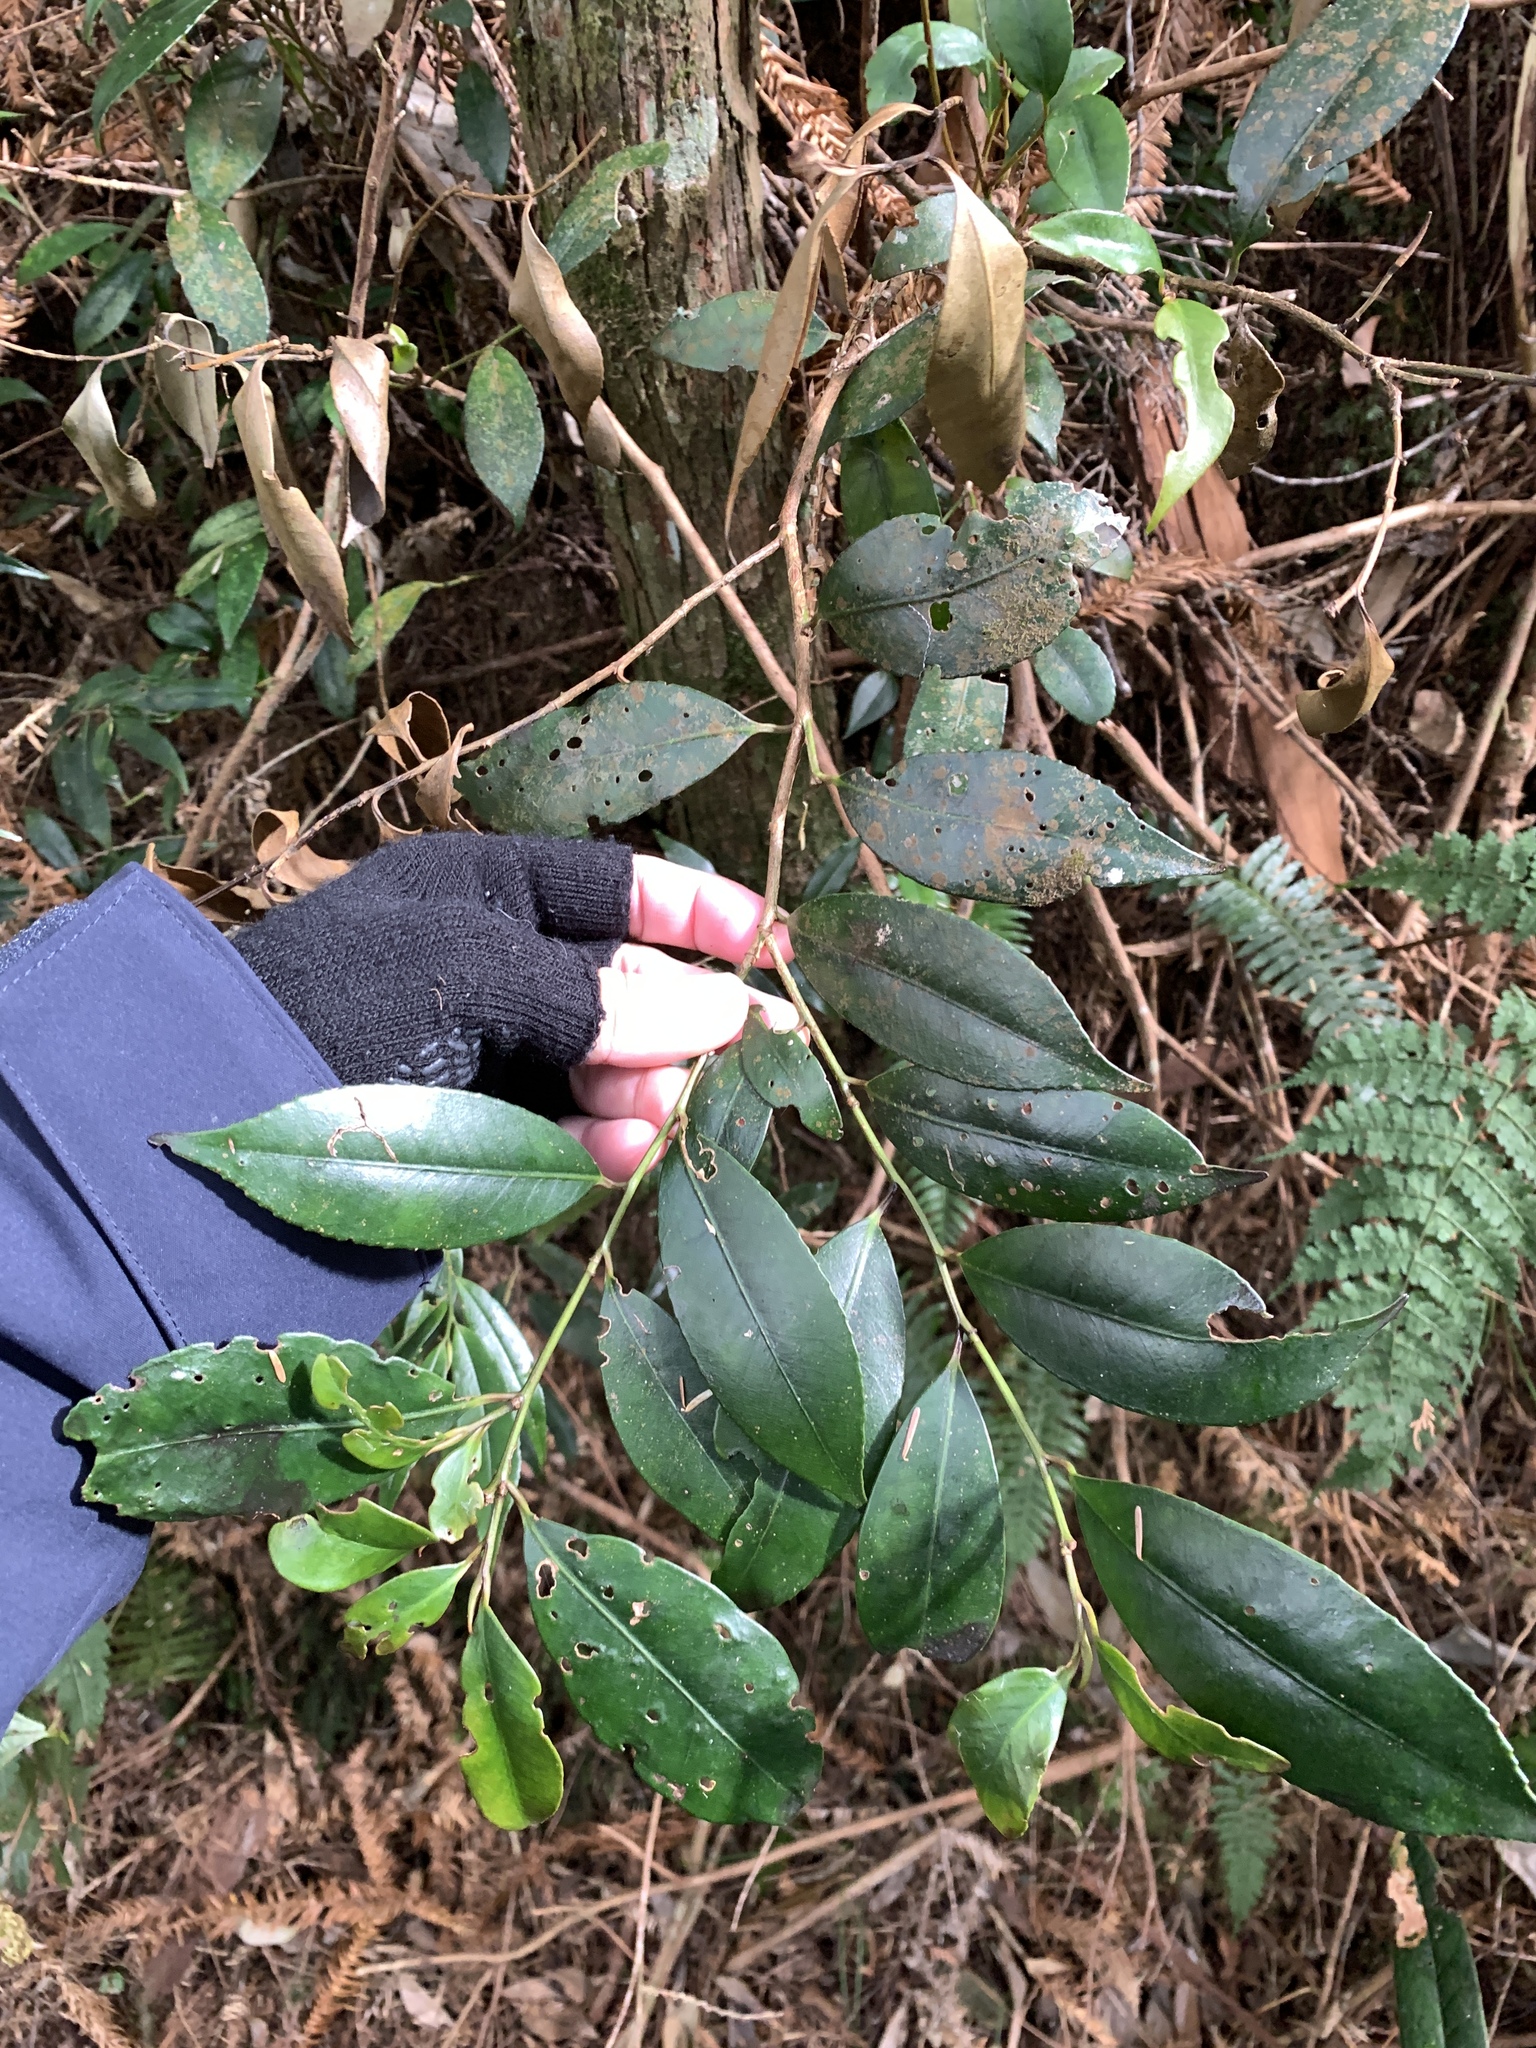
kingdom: Plantae
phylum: Tracheophyta
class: Magnoliopsida
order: Ericales
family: Pentaphylacaceae
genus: Cleyera
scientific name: Cleyera japonica
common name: Sakaki
